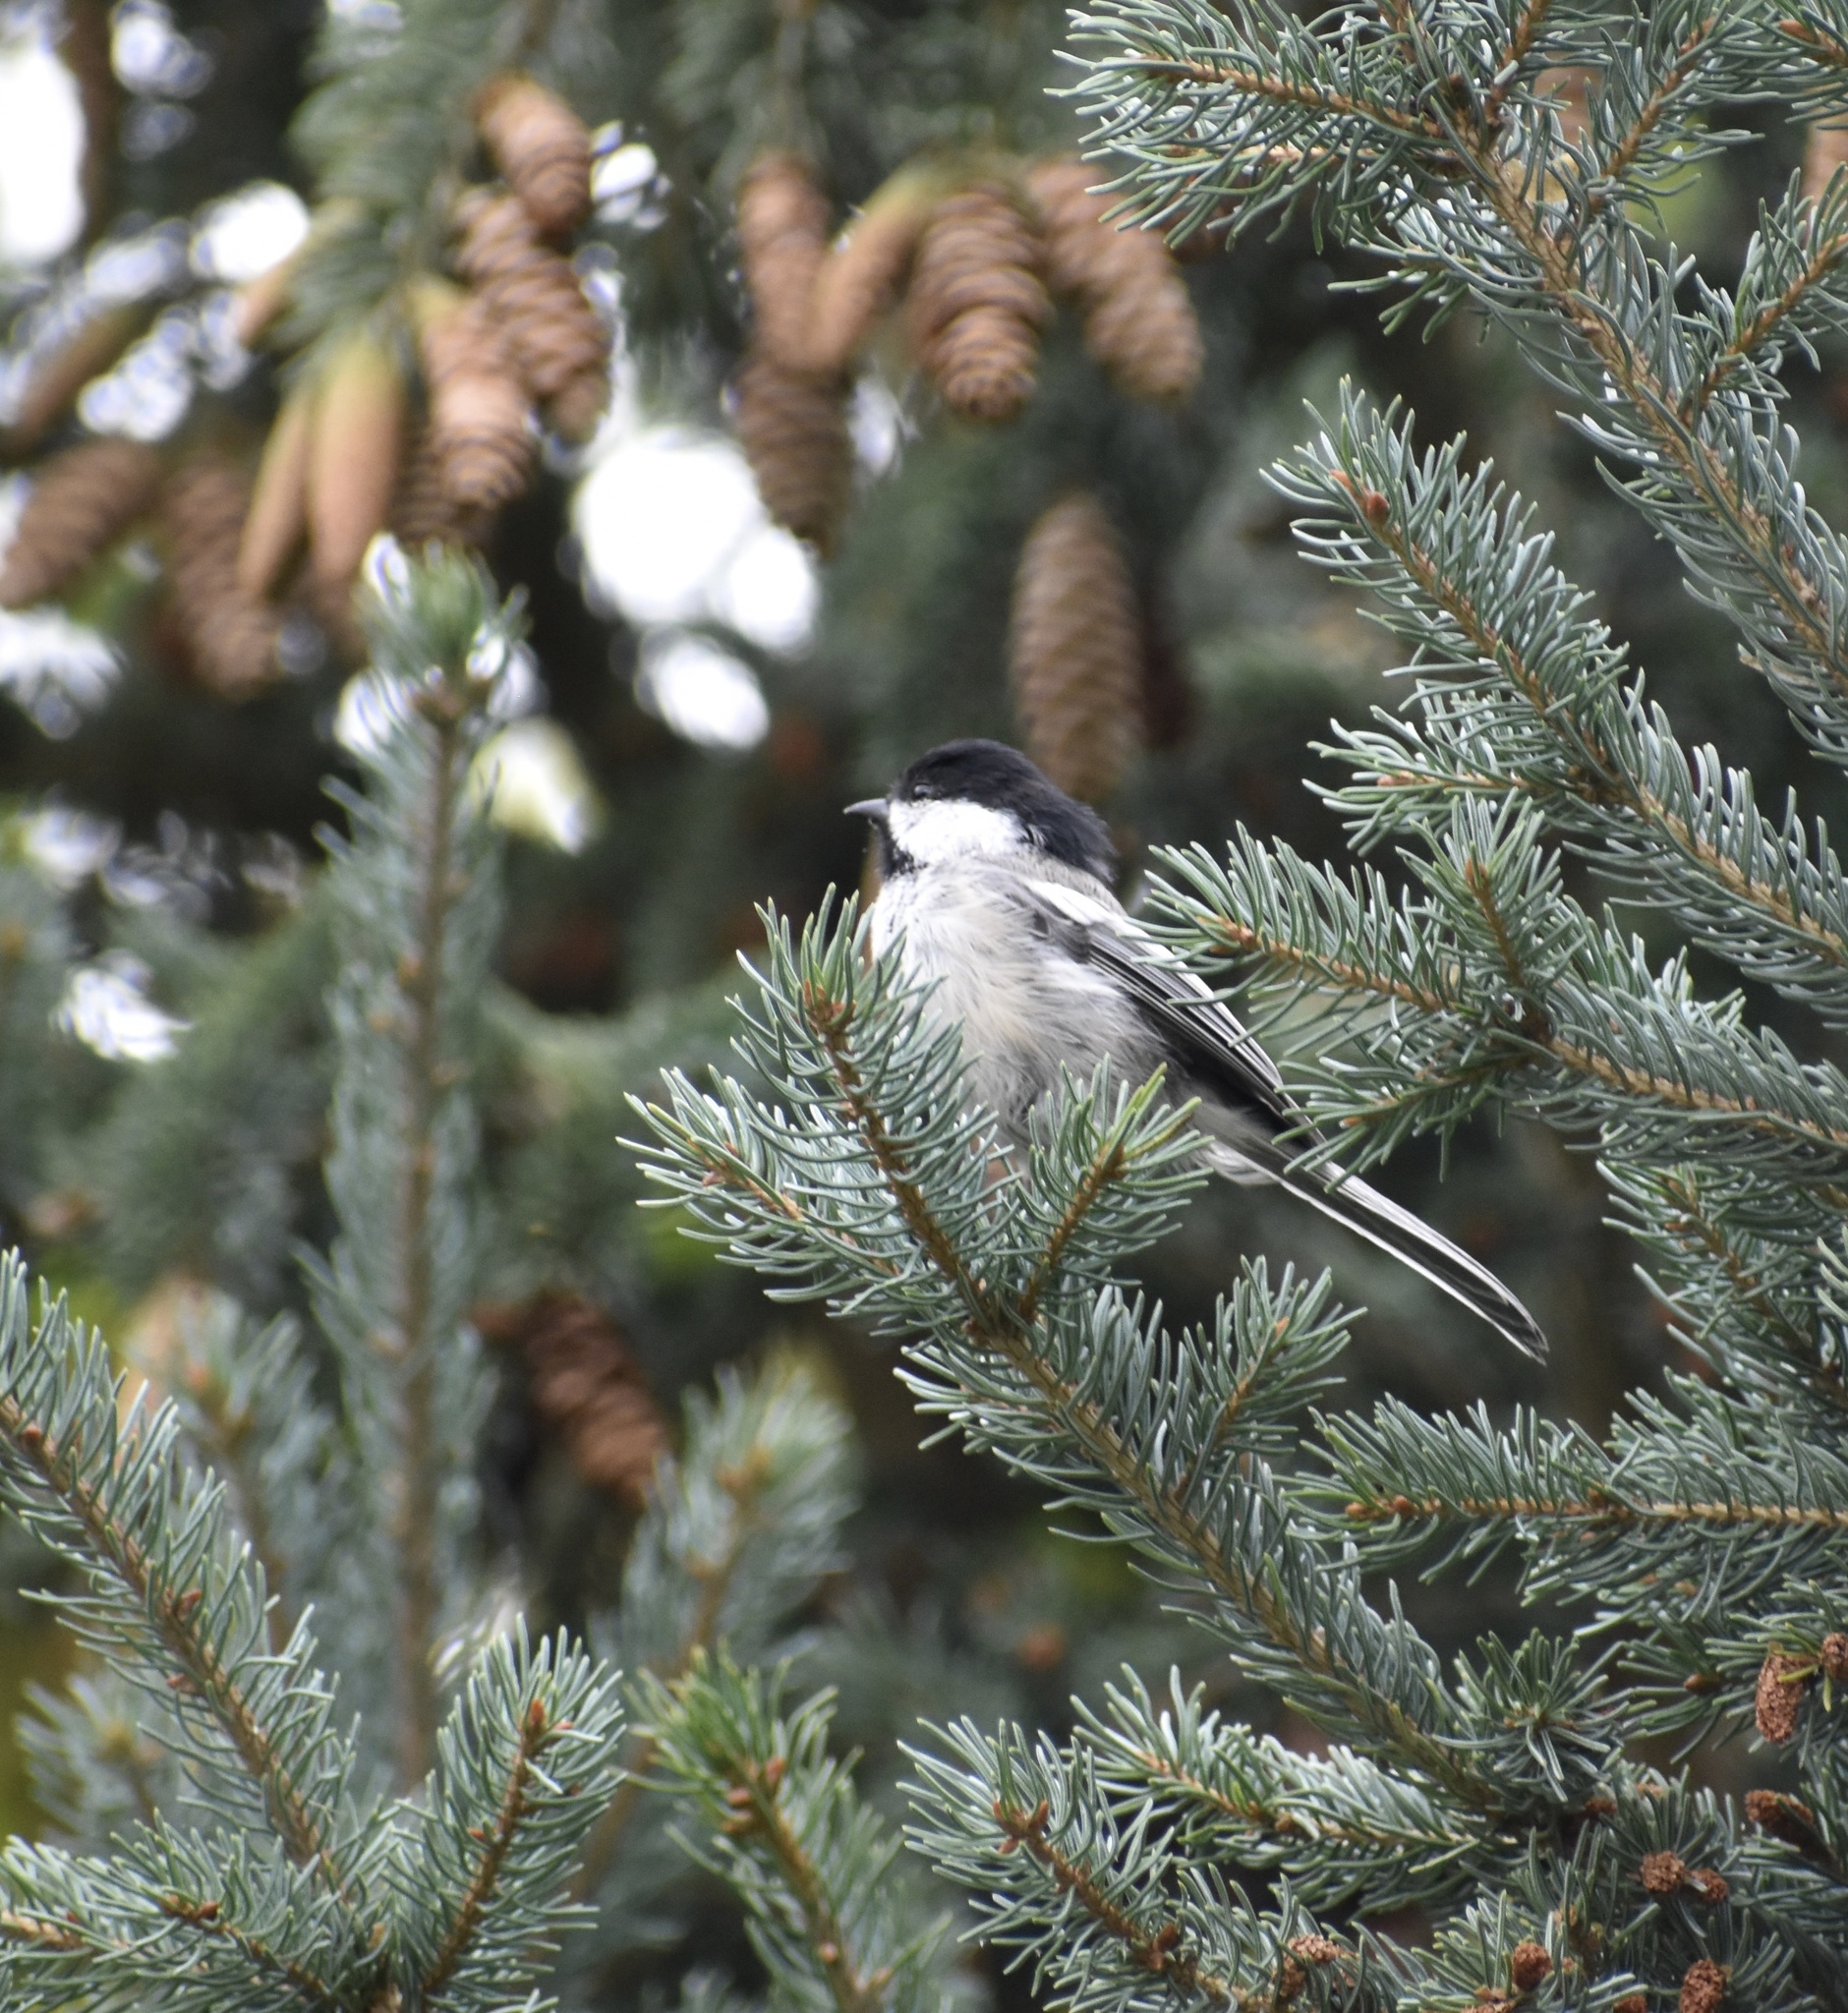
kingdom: Animalia
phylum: Chordata
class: Aves
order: Passeriformes
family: Paridae
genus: Poecile
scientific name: Poecile atricapillus
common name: Black-capped chickadee
